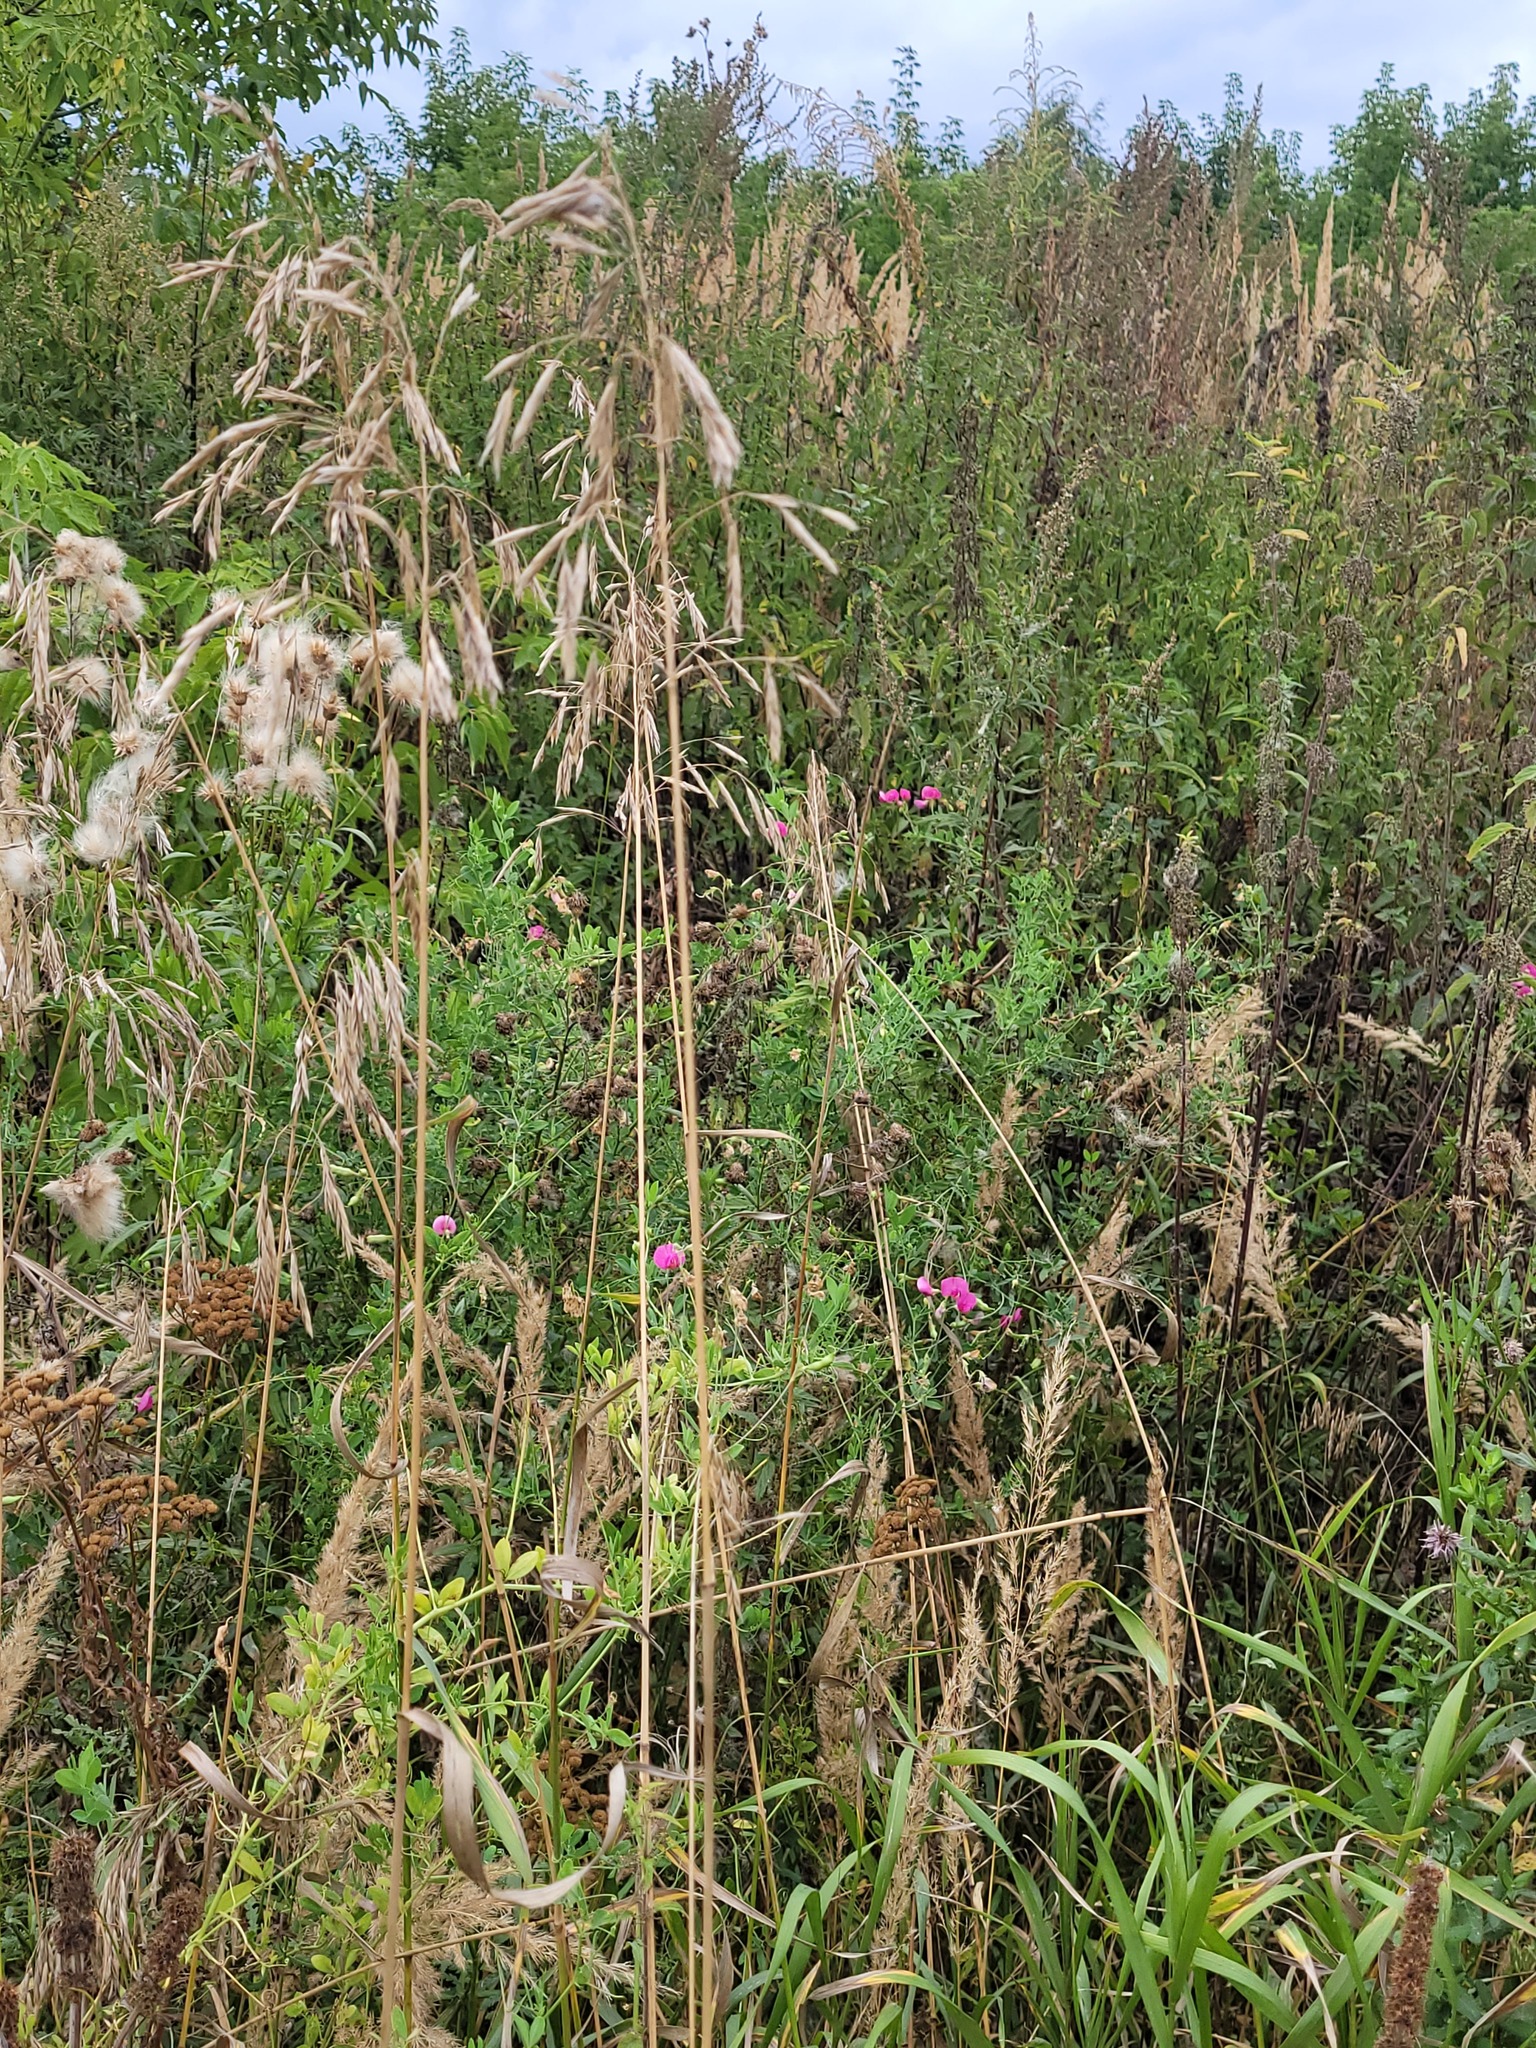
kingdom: Plantae
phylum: Tracheophyta
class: Magnoliopsida
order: Fabales
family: Fabaceae
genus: Lathyrus
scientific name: Lathyrus tuberosus
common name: Tuberous pea
